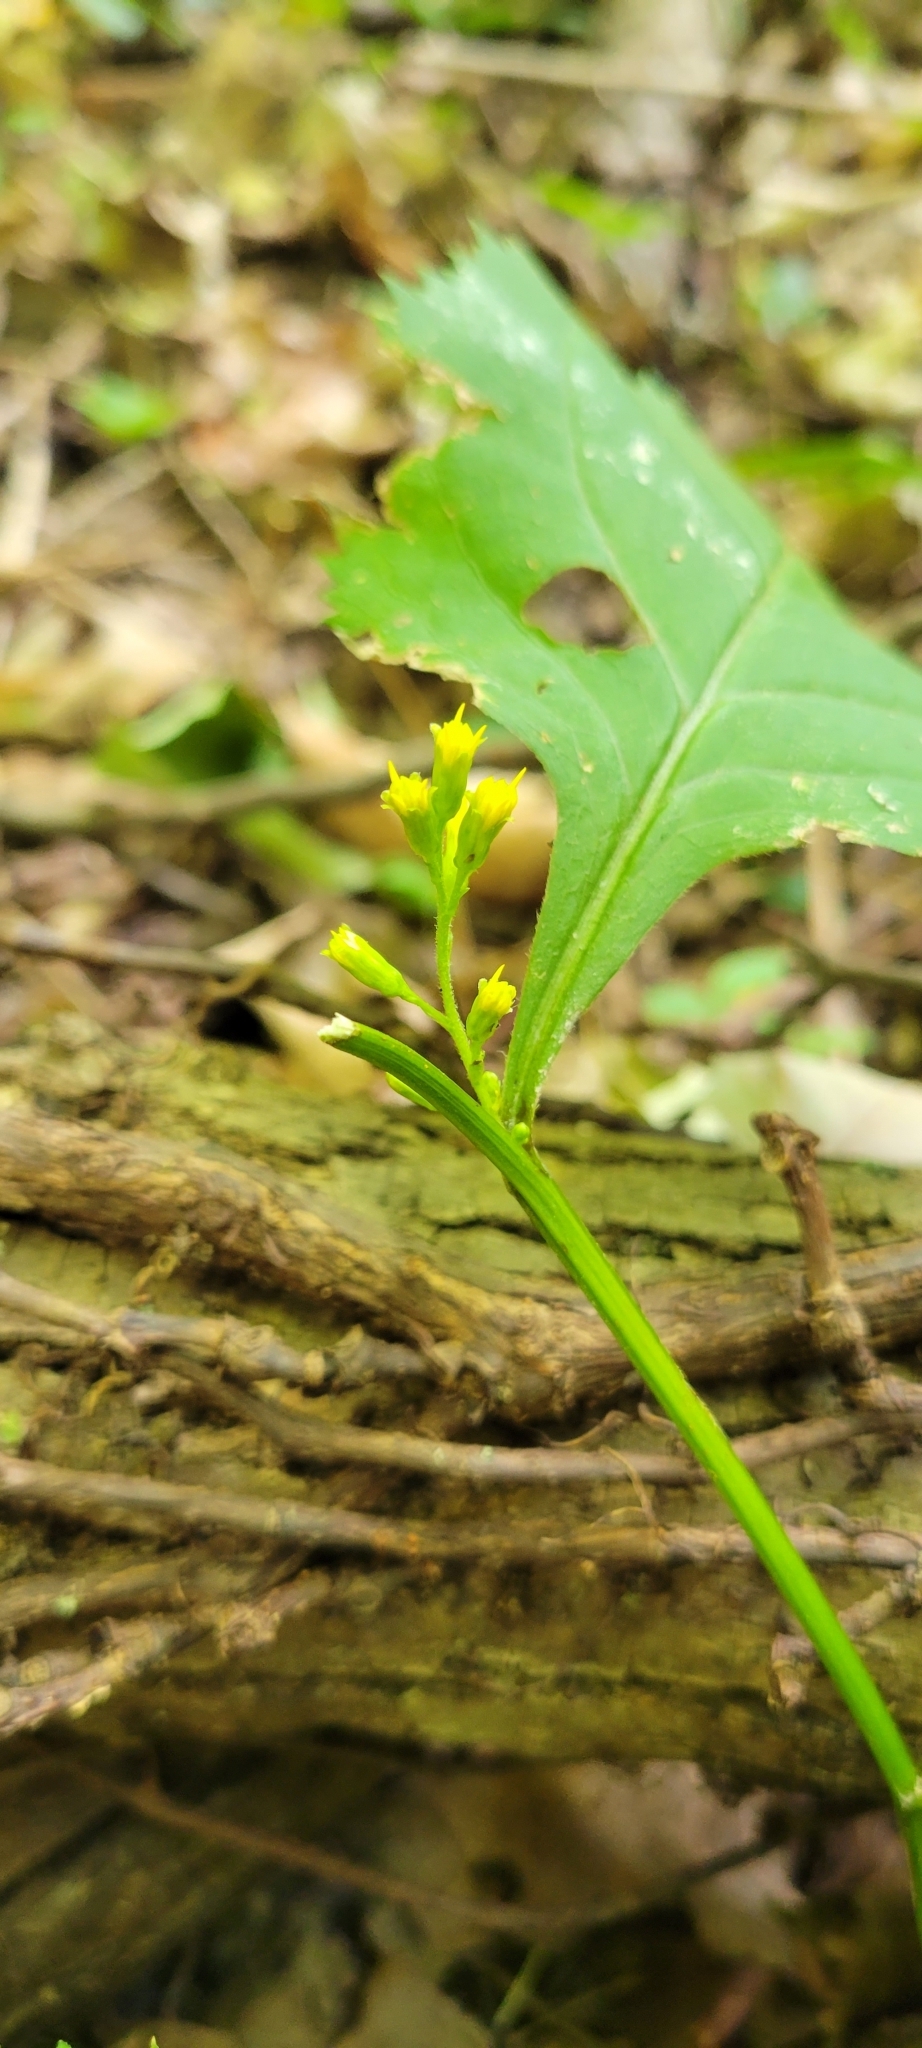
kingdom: Plantae
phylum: Tracheophyta
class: Magnoliopsida
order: Asterales
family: Asteraceae
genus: Solidago
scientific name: Solidago flexicaulis
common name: Zig-zag goldenrod
